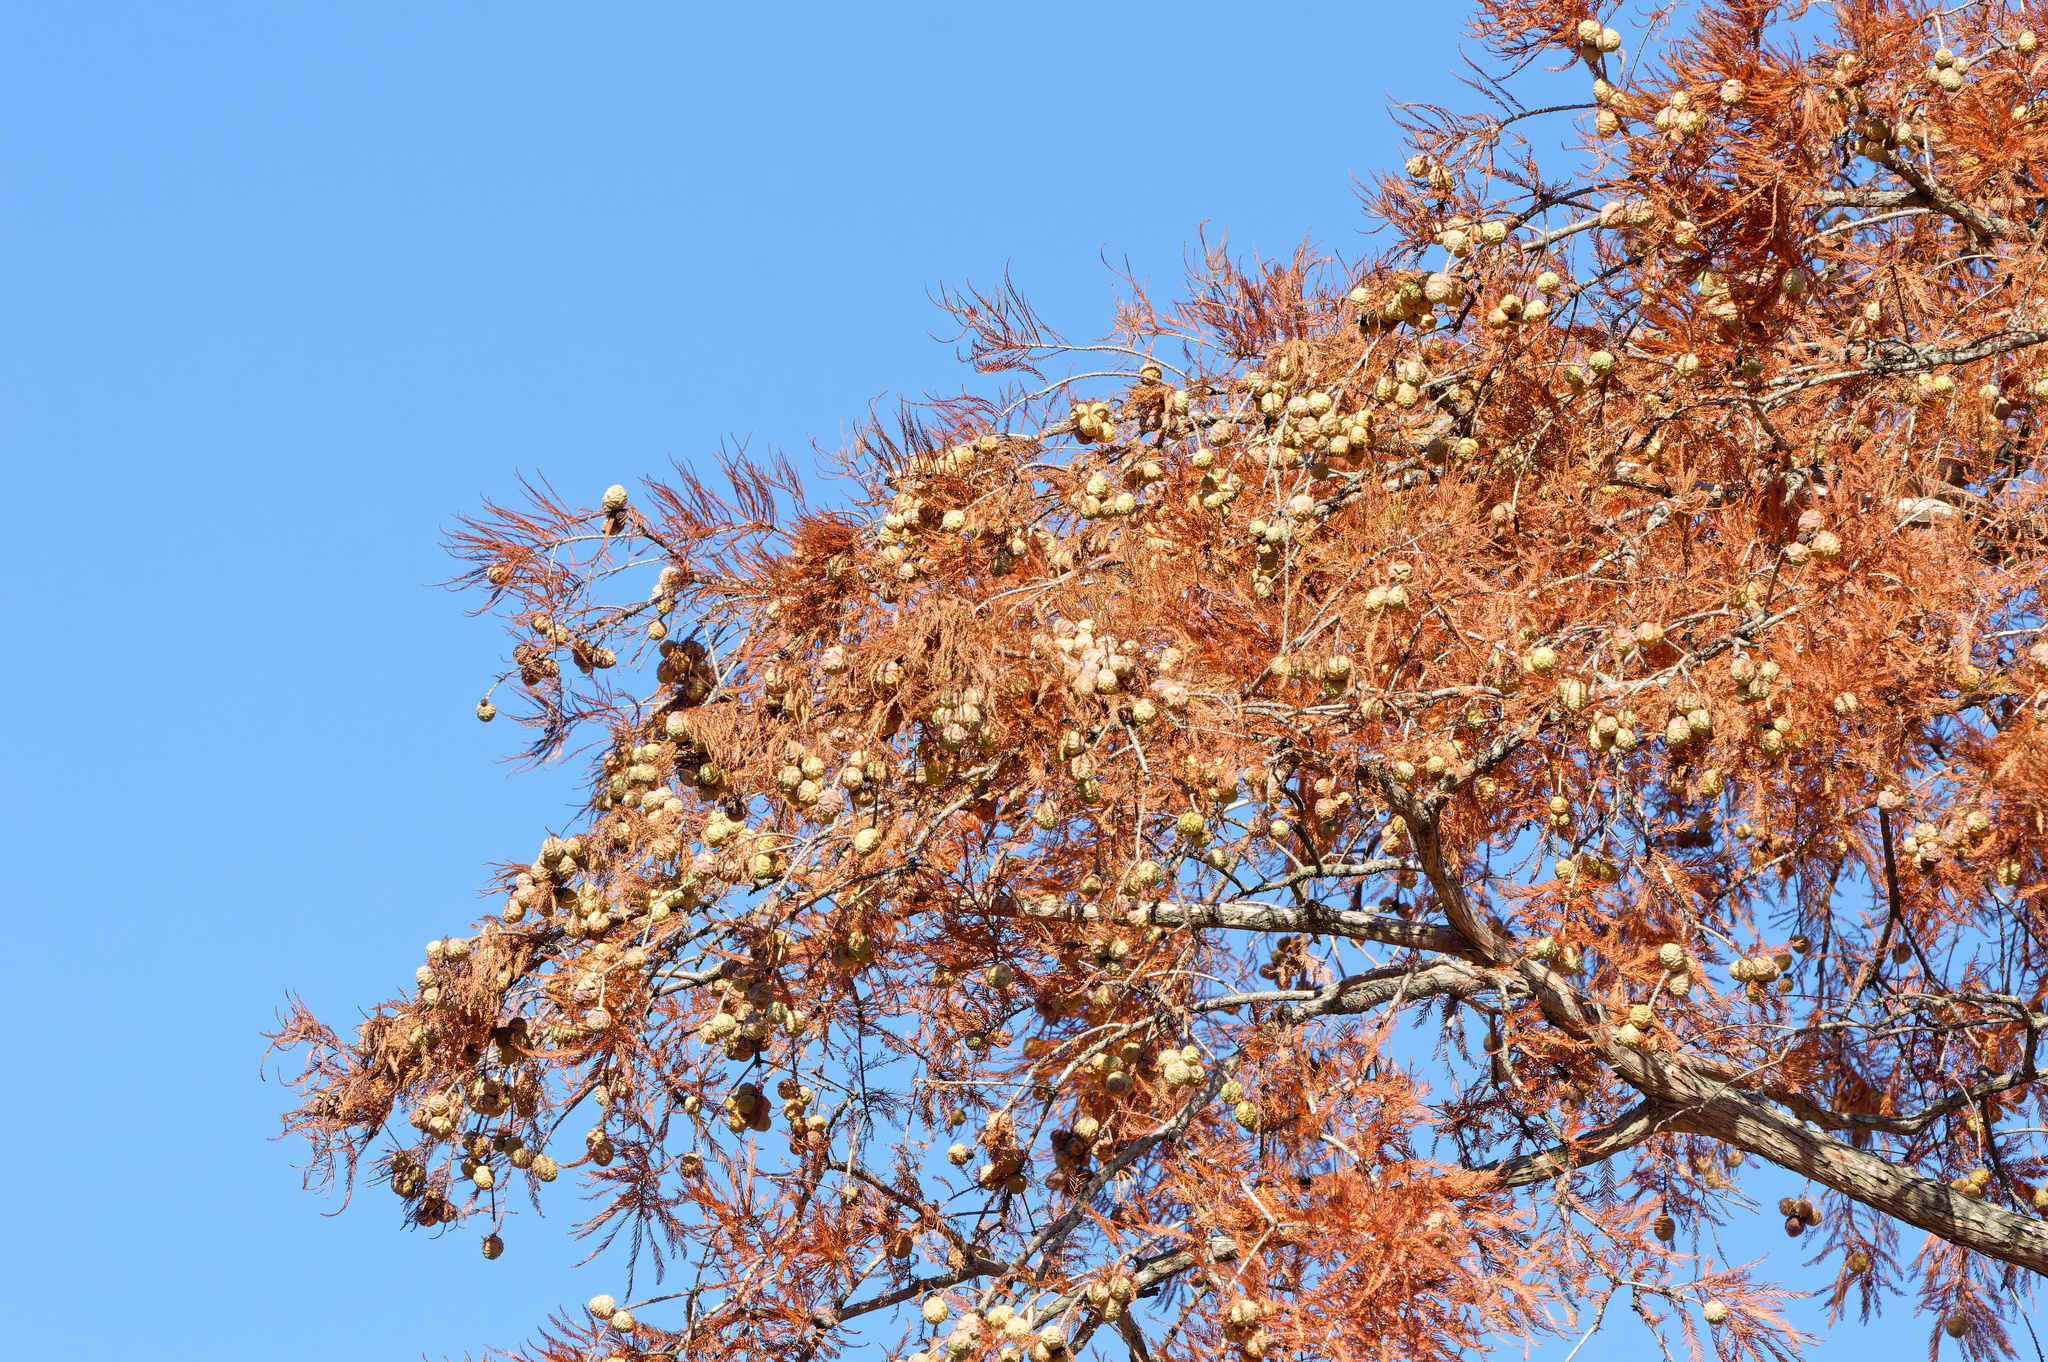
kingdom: Plantae
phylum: Tracheophyta
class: Pinopsida
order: Pinales
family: Cupressaceae
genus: Taxodium
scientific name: Taxodium distichum
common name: Bald cypress
